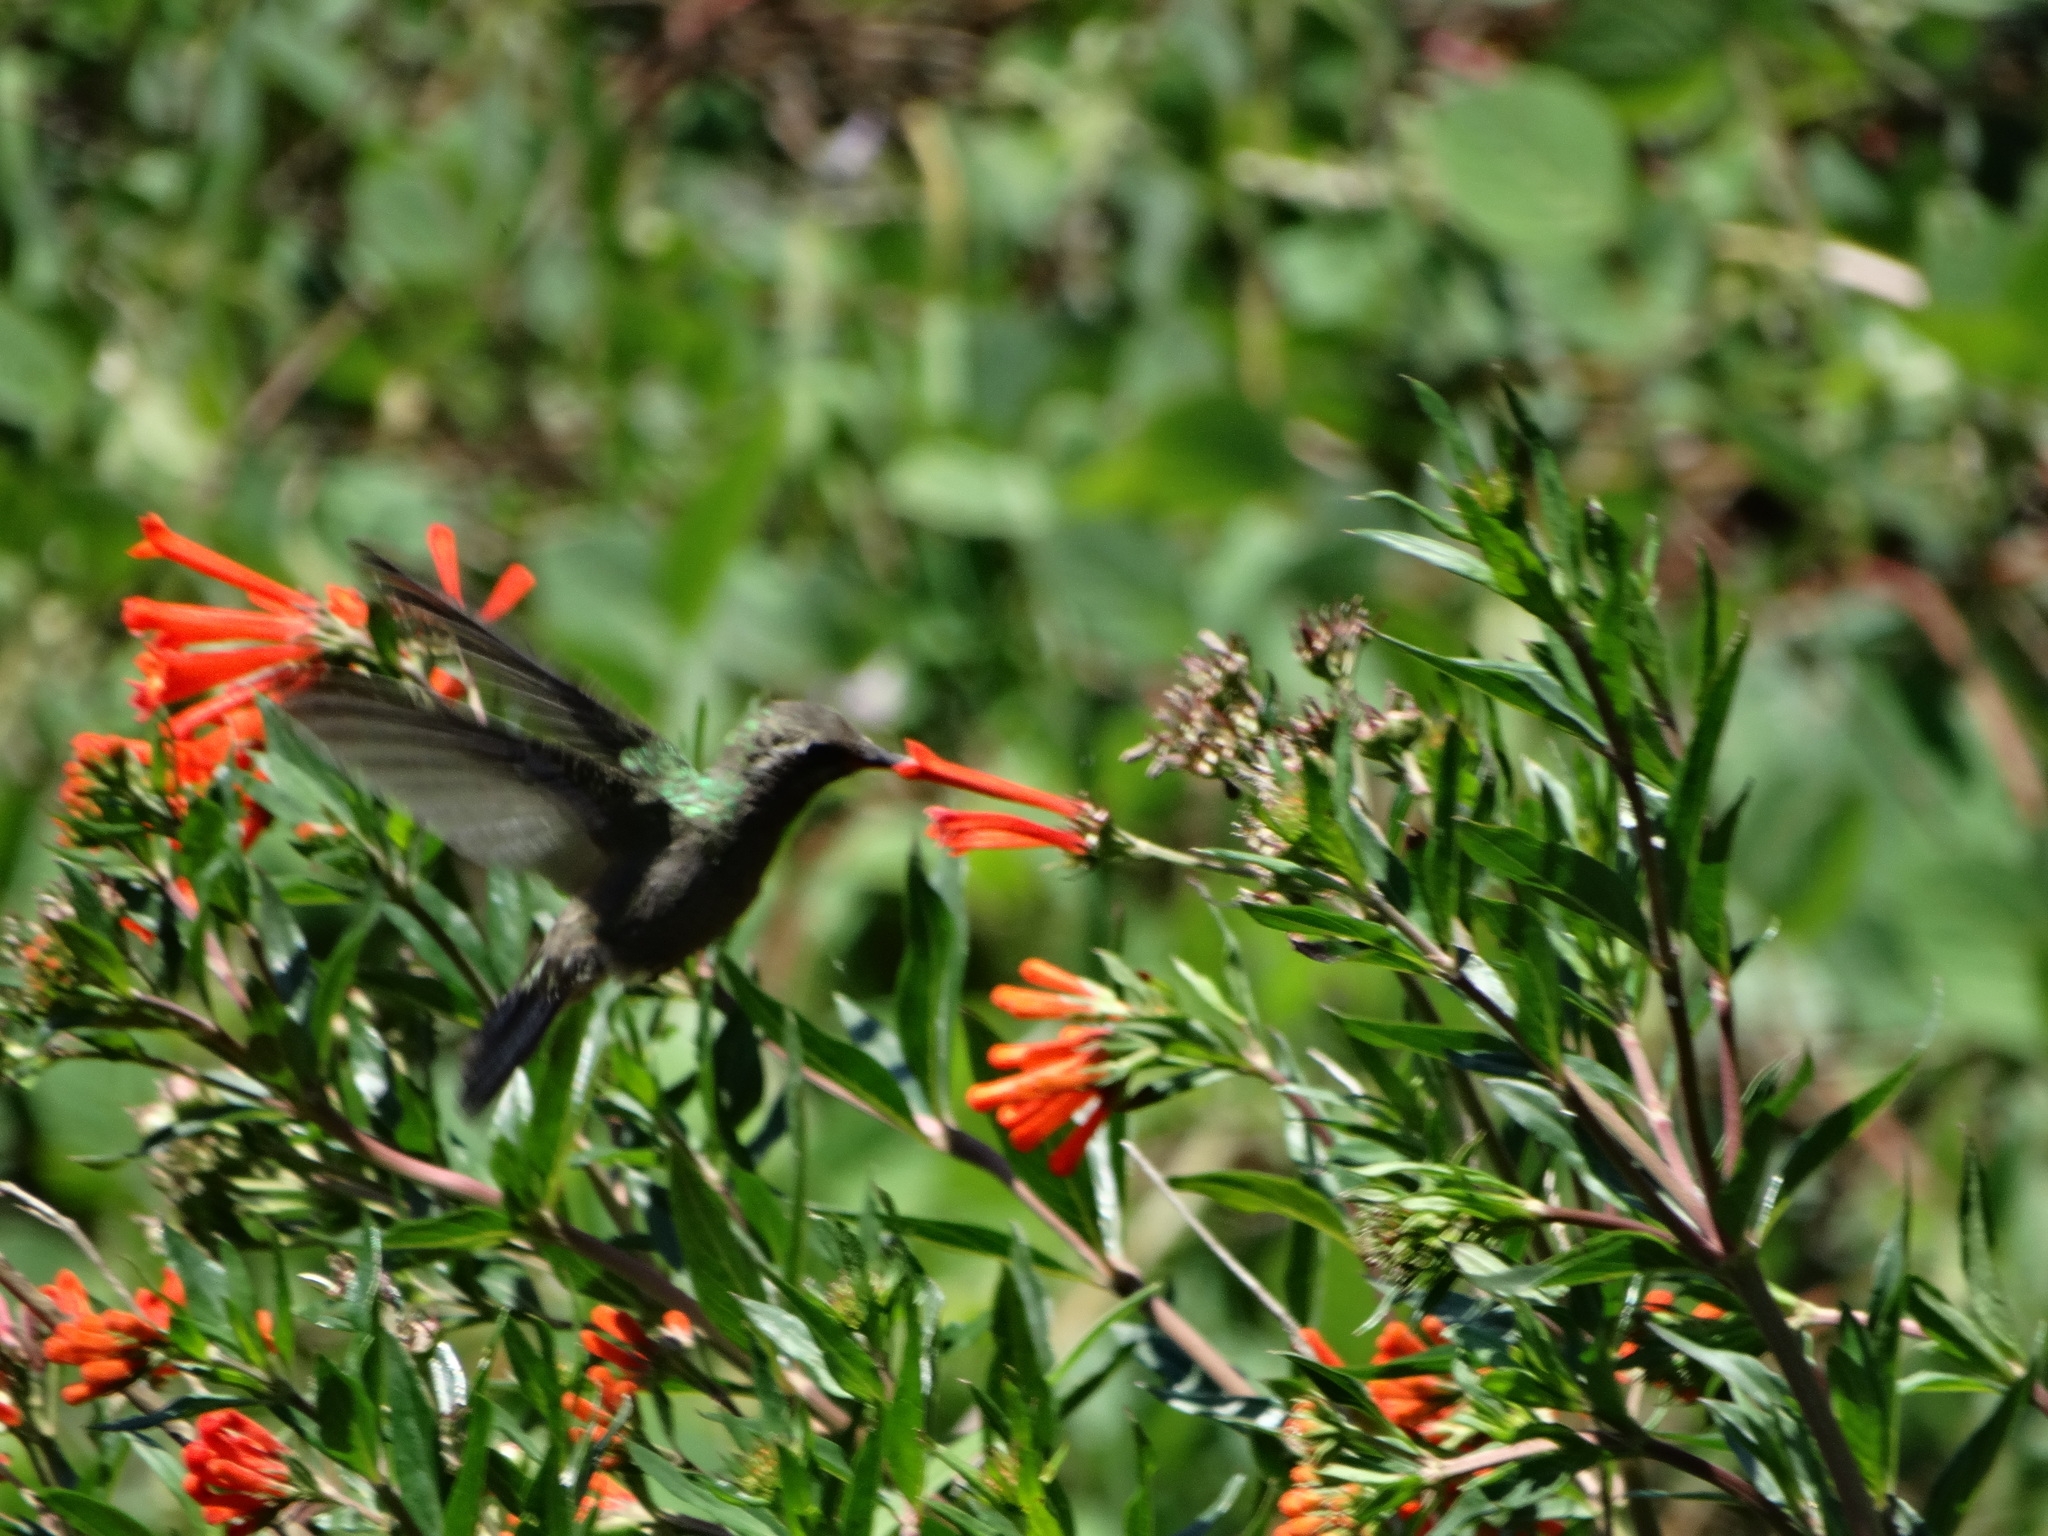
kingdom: Animalia
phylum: Chordata
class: Aves
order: Apodiformes
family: Trochilidae
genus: Cynanthus
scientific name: Cynanthus latirostris
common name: Broad-billed hummingbird
